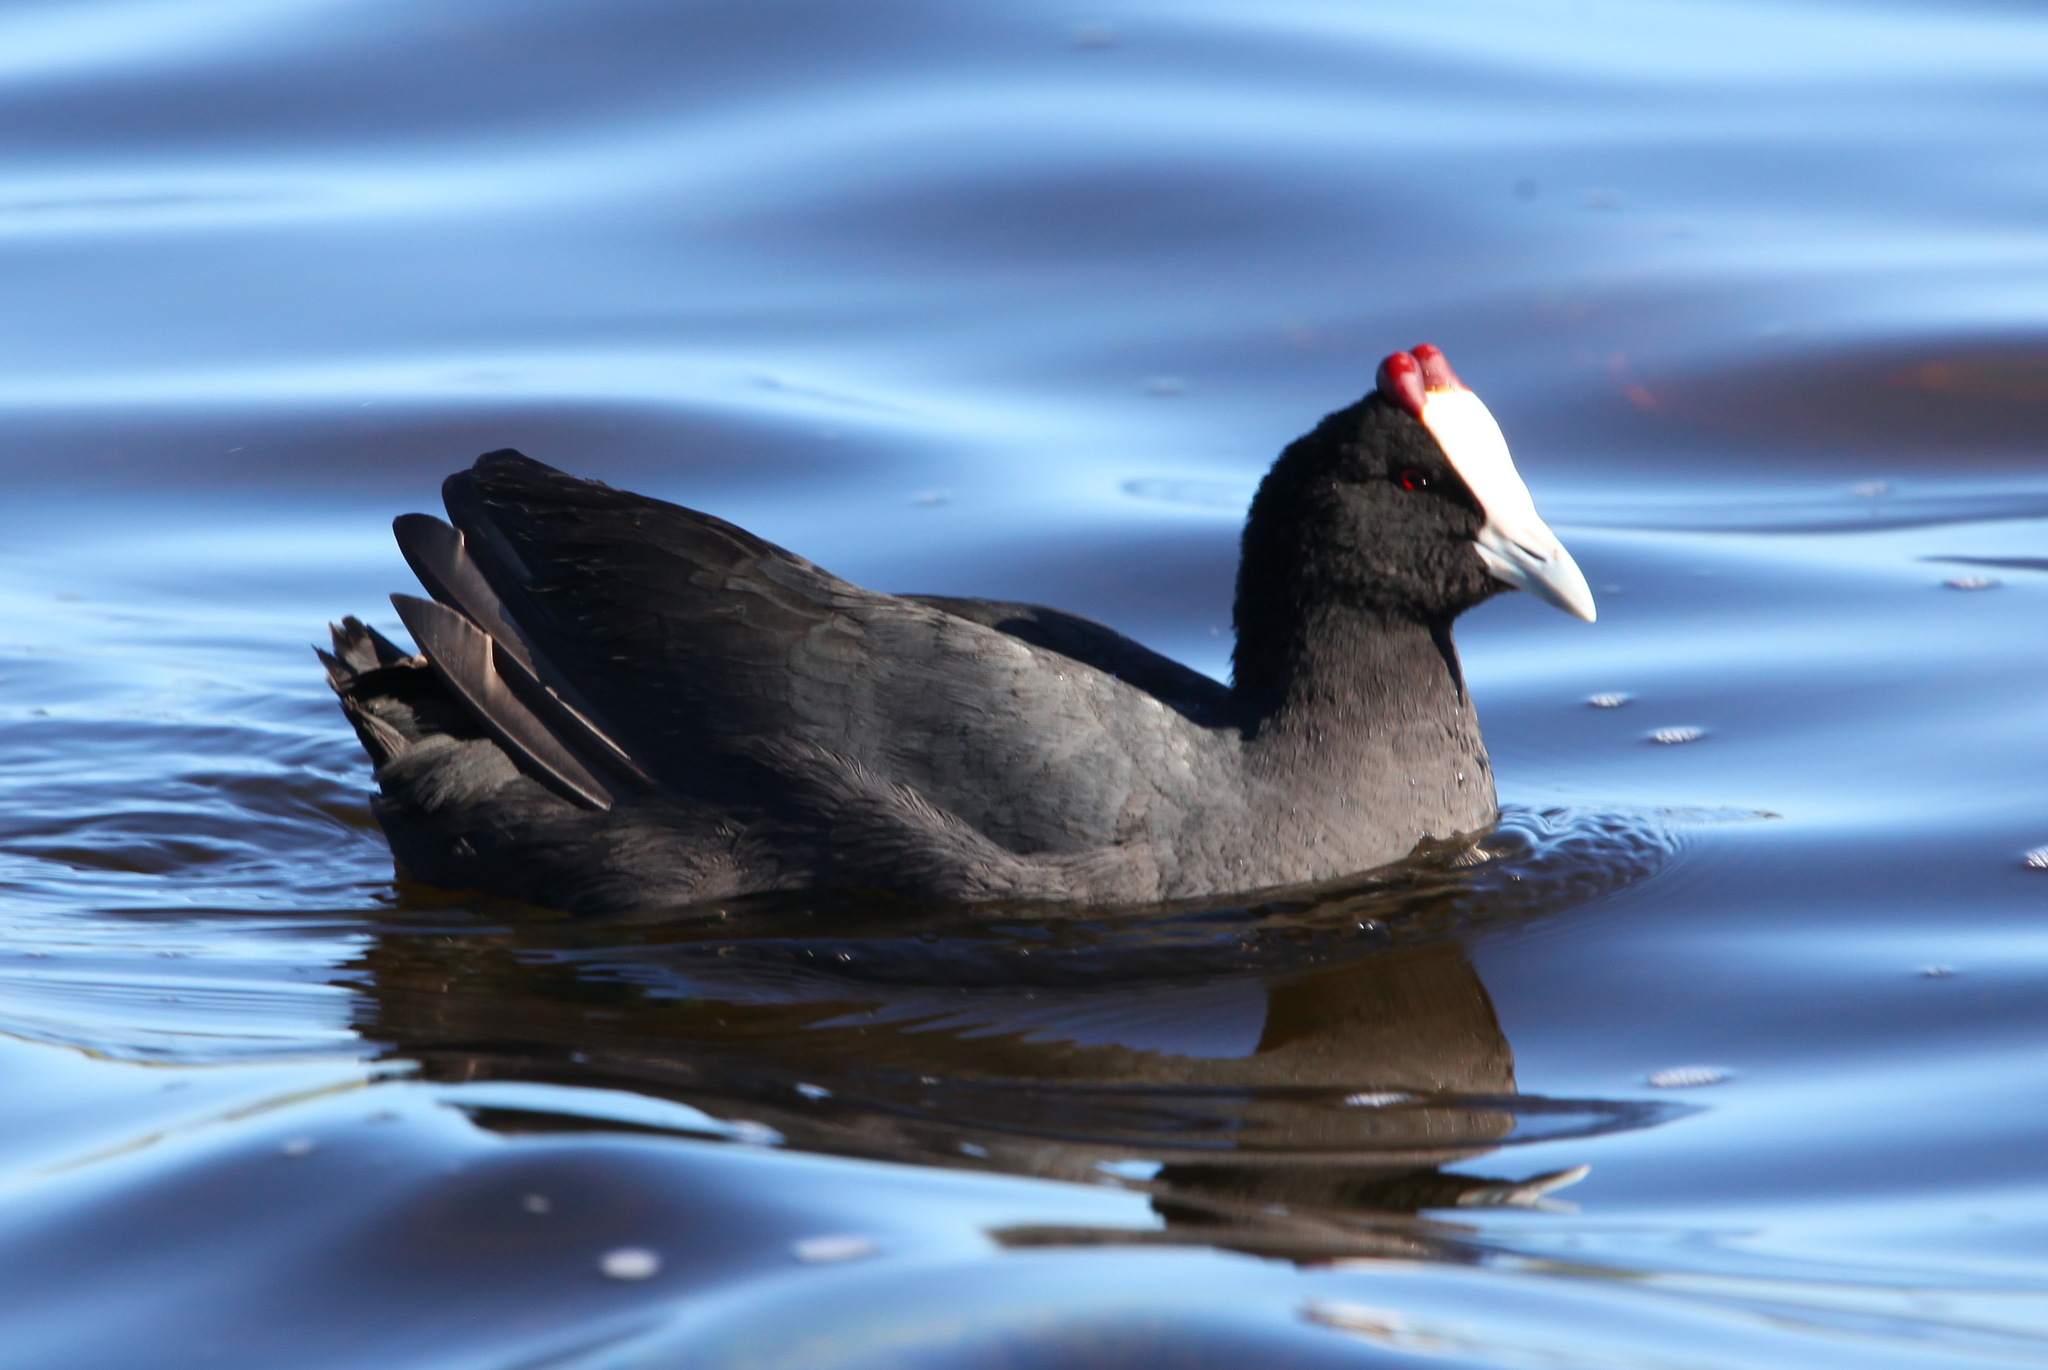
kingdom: Animalia
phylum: Chordata
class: Aves
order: Gruiformes
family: Rallidae
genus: Fulica
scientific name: Fulica cristata
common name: Red-knobbed coot
